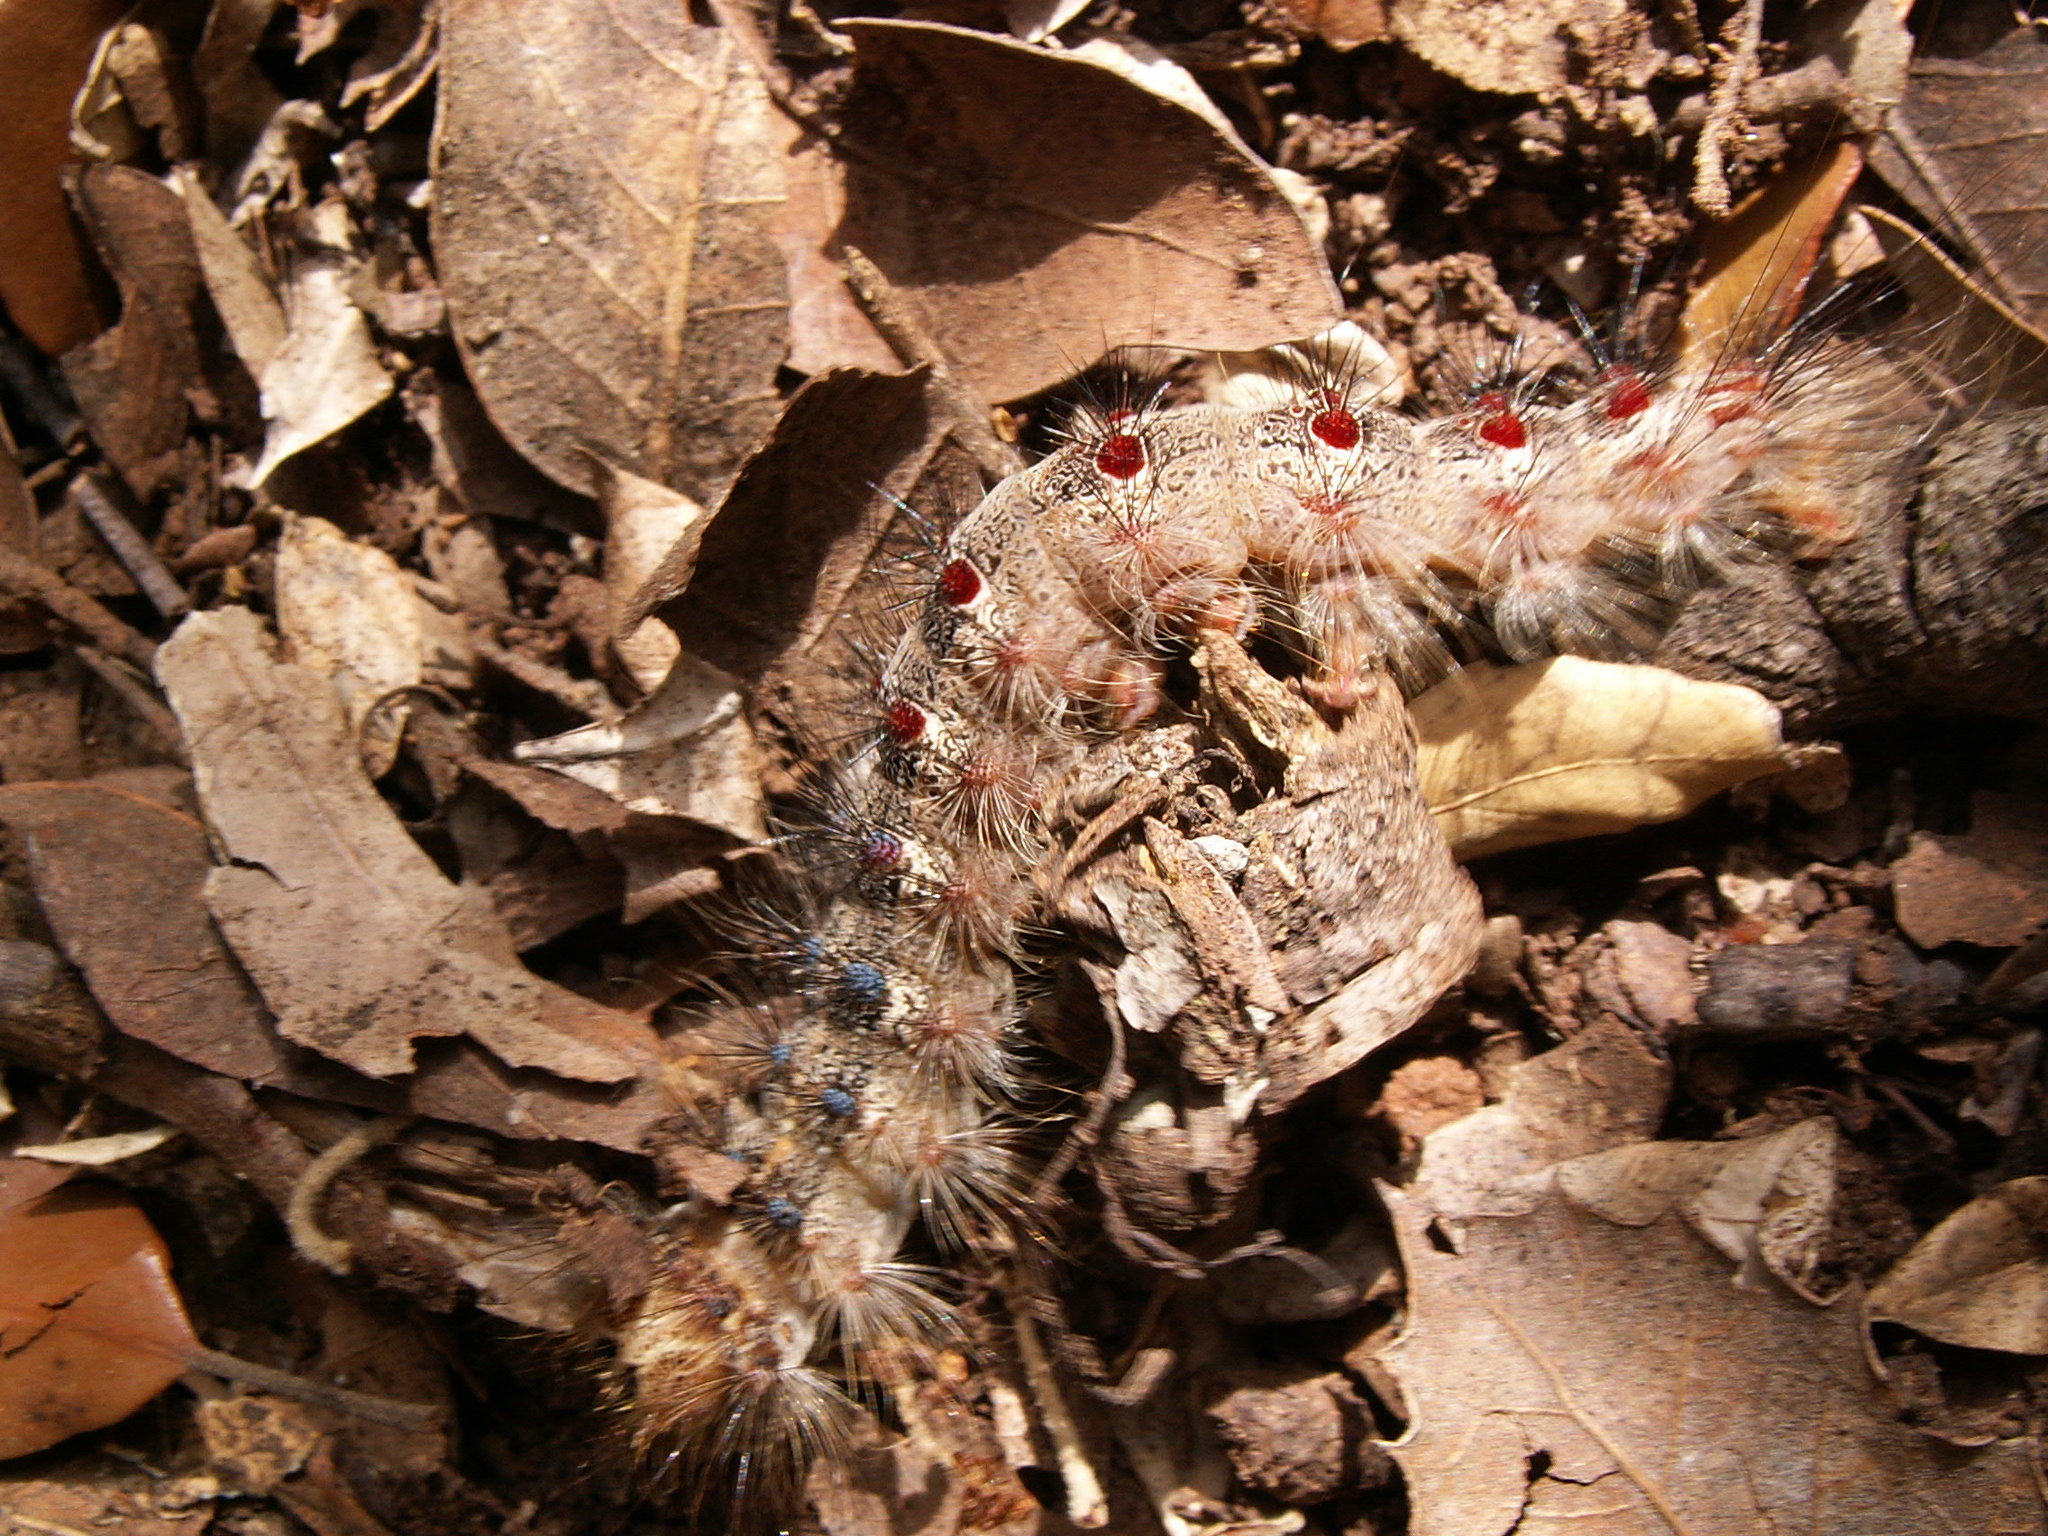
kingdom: Animalia
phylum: Arthropoda
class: Insecta
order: Lepidoptera
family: Erebidae
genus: Lymantria
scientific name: Lymantria dispar
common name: Gypsy moth
